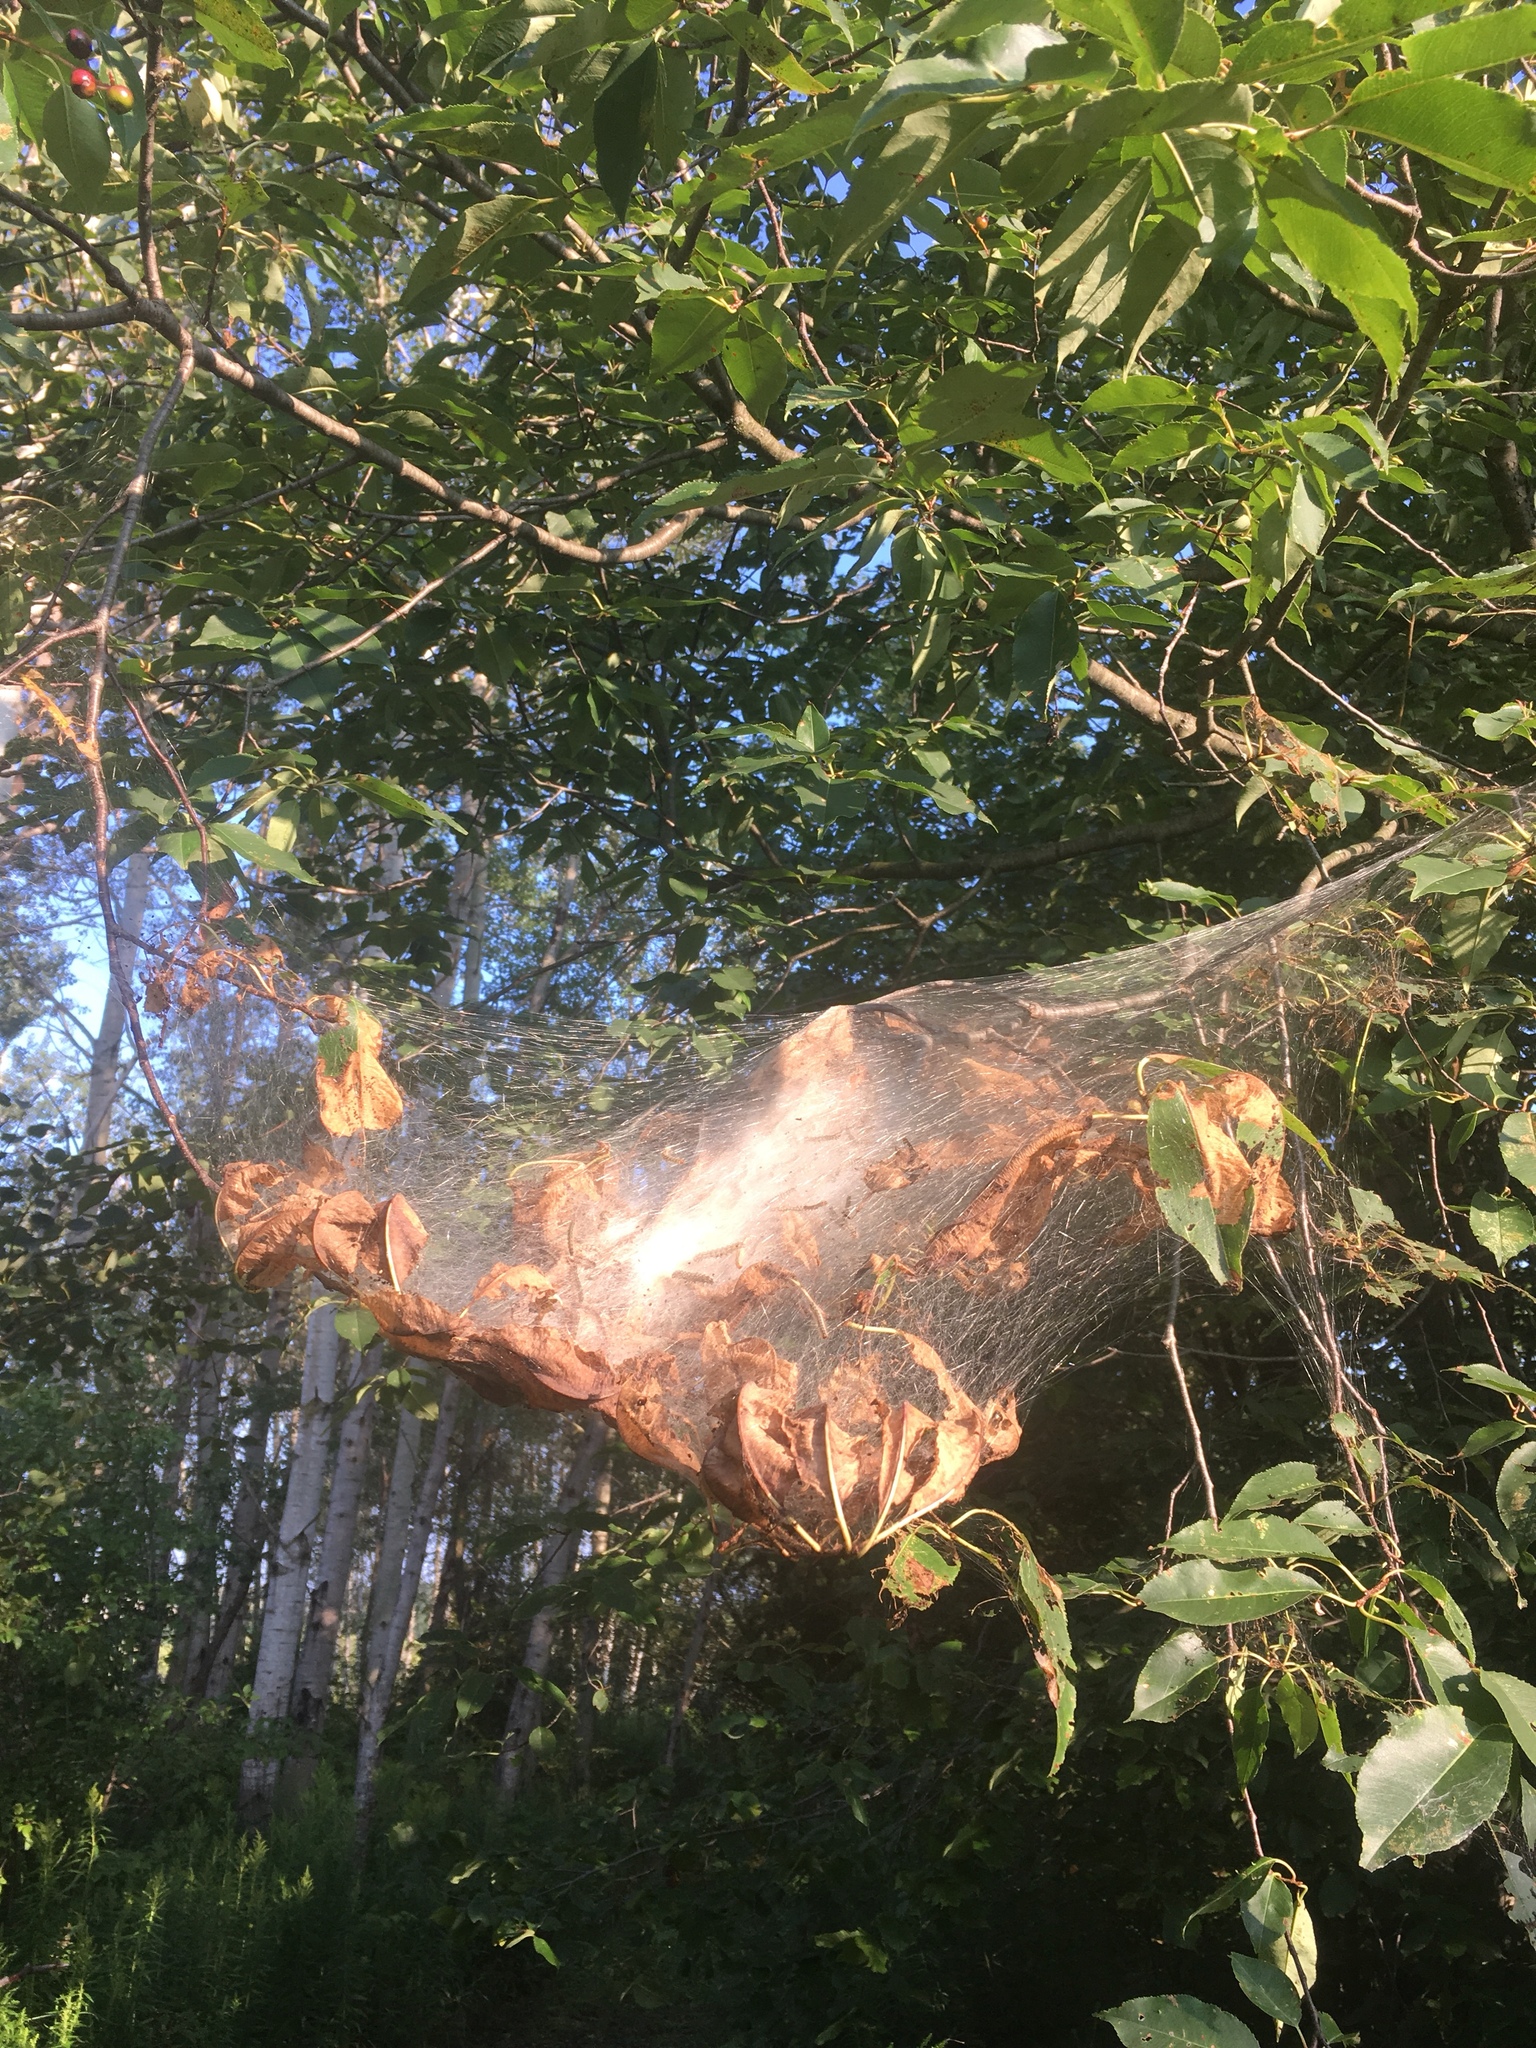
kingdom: Animalia
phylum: Arthropoda
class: Insecta
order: Lepidoptera
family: Erebidae
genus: Hyphantria
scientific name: Hyphantria cunea
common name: American white moth
